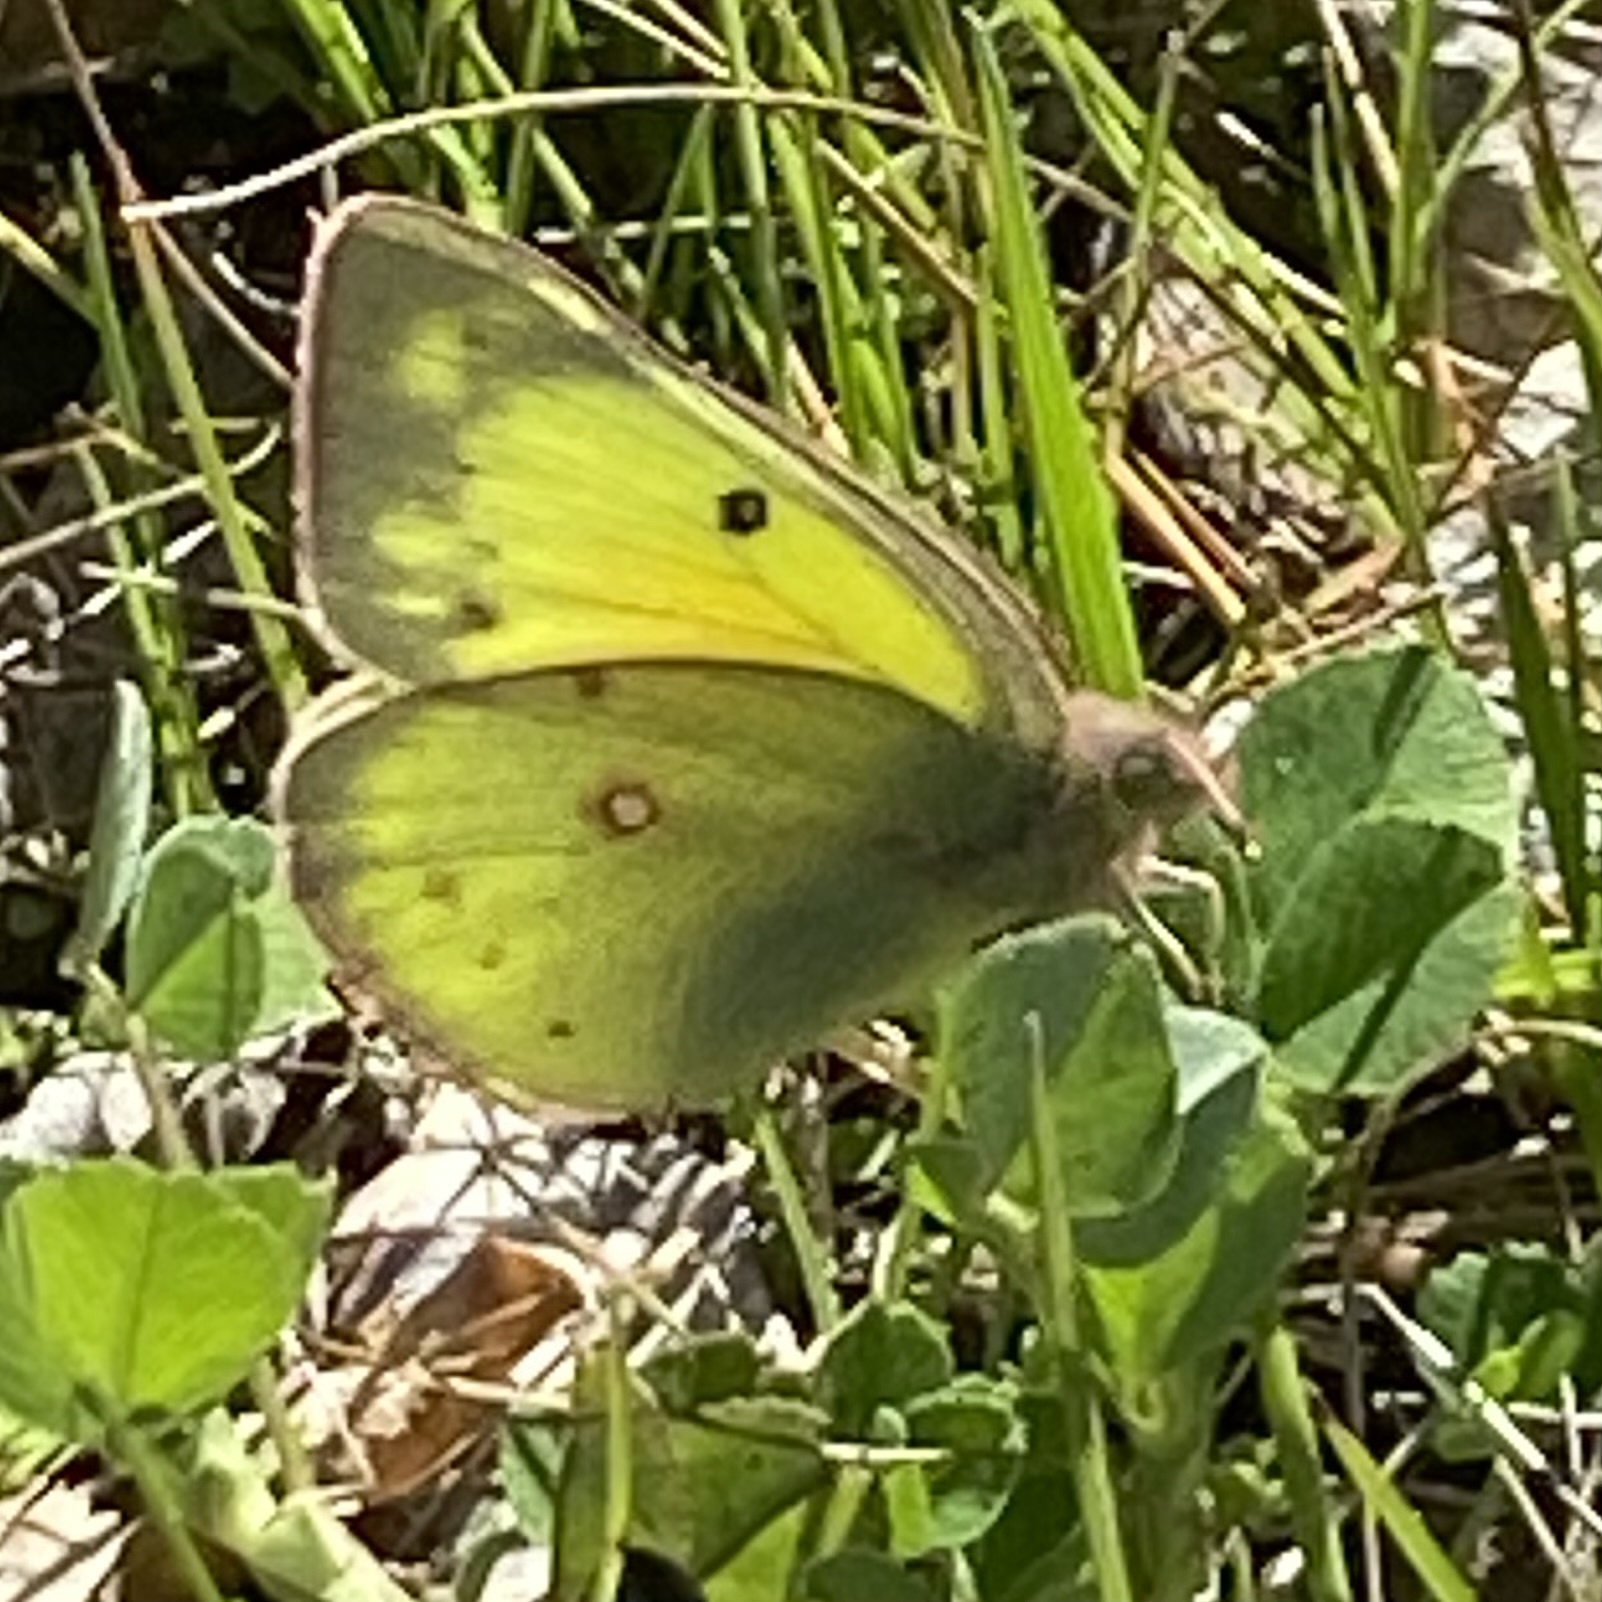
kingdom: Animalia
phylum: Arthropoda
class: Insecta
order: Lepidoptera
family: Pieridae
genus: Colias
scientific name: Colias eurytheme
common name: Alfalfa butterfly
